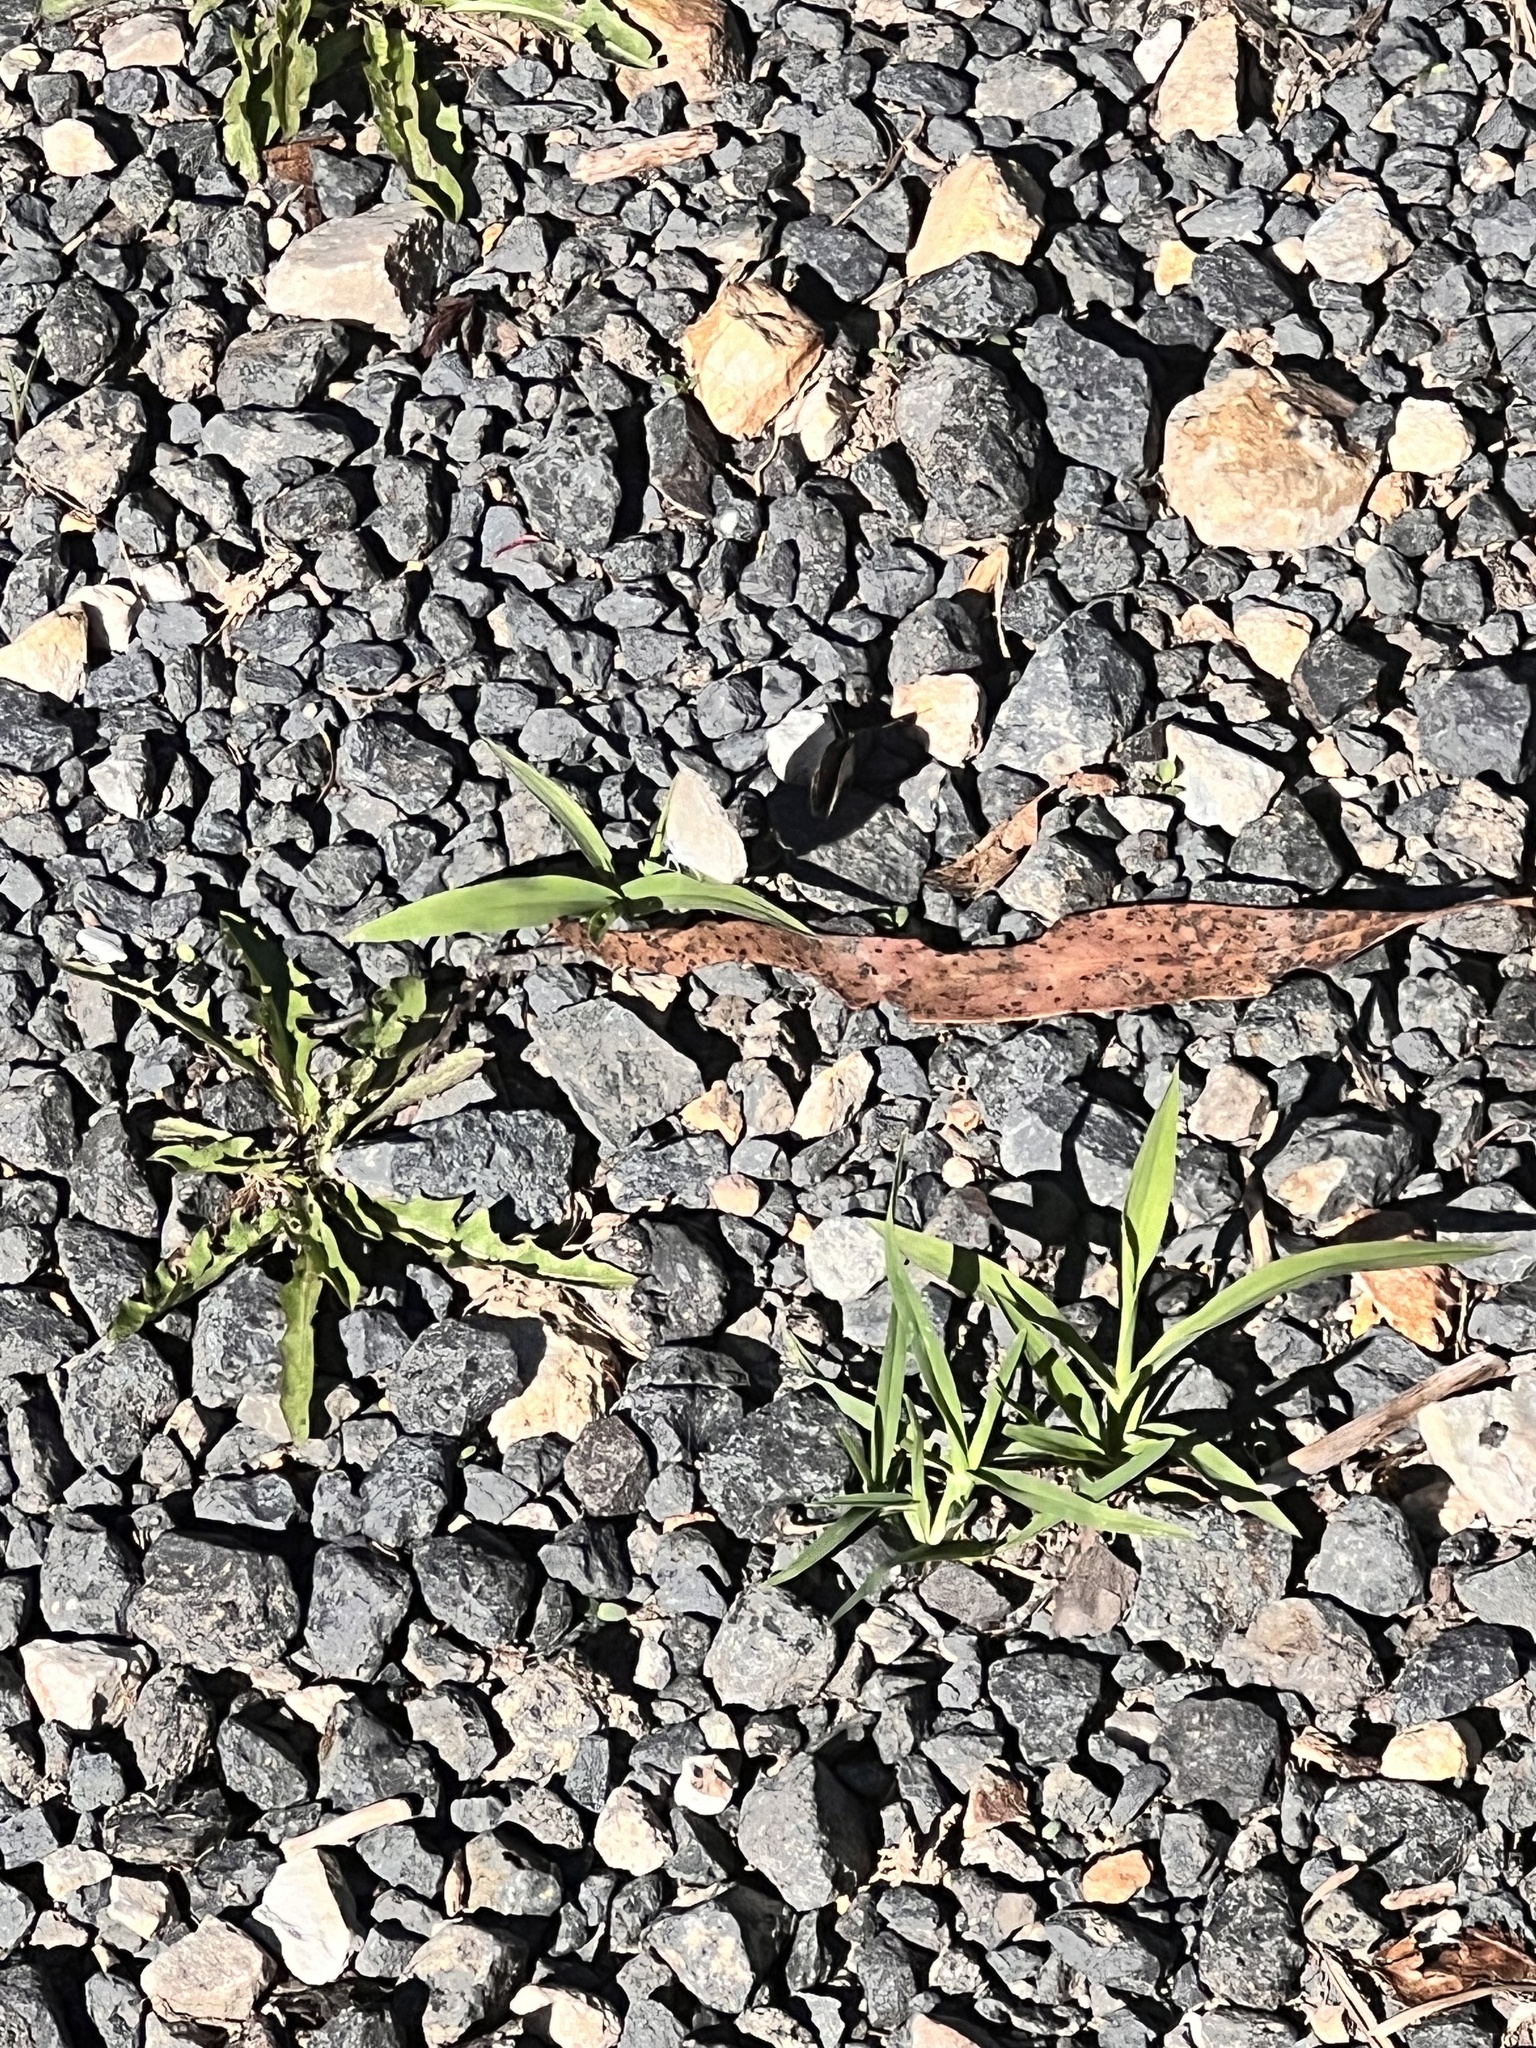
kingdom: Animalia
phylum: Arthropoda
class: Insecta
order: Lepidoptera
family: Lycaenidae
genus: Zizina
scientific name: Zizina labradus
